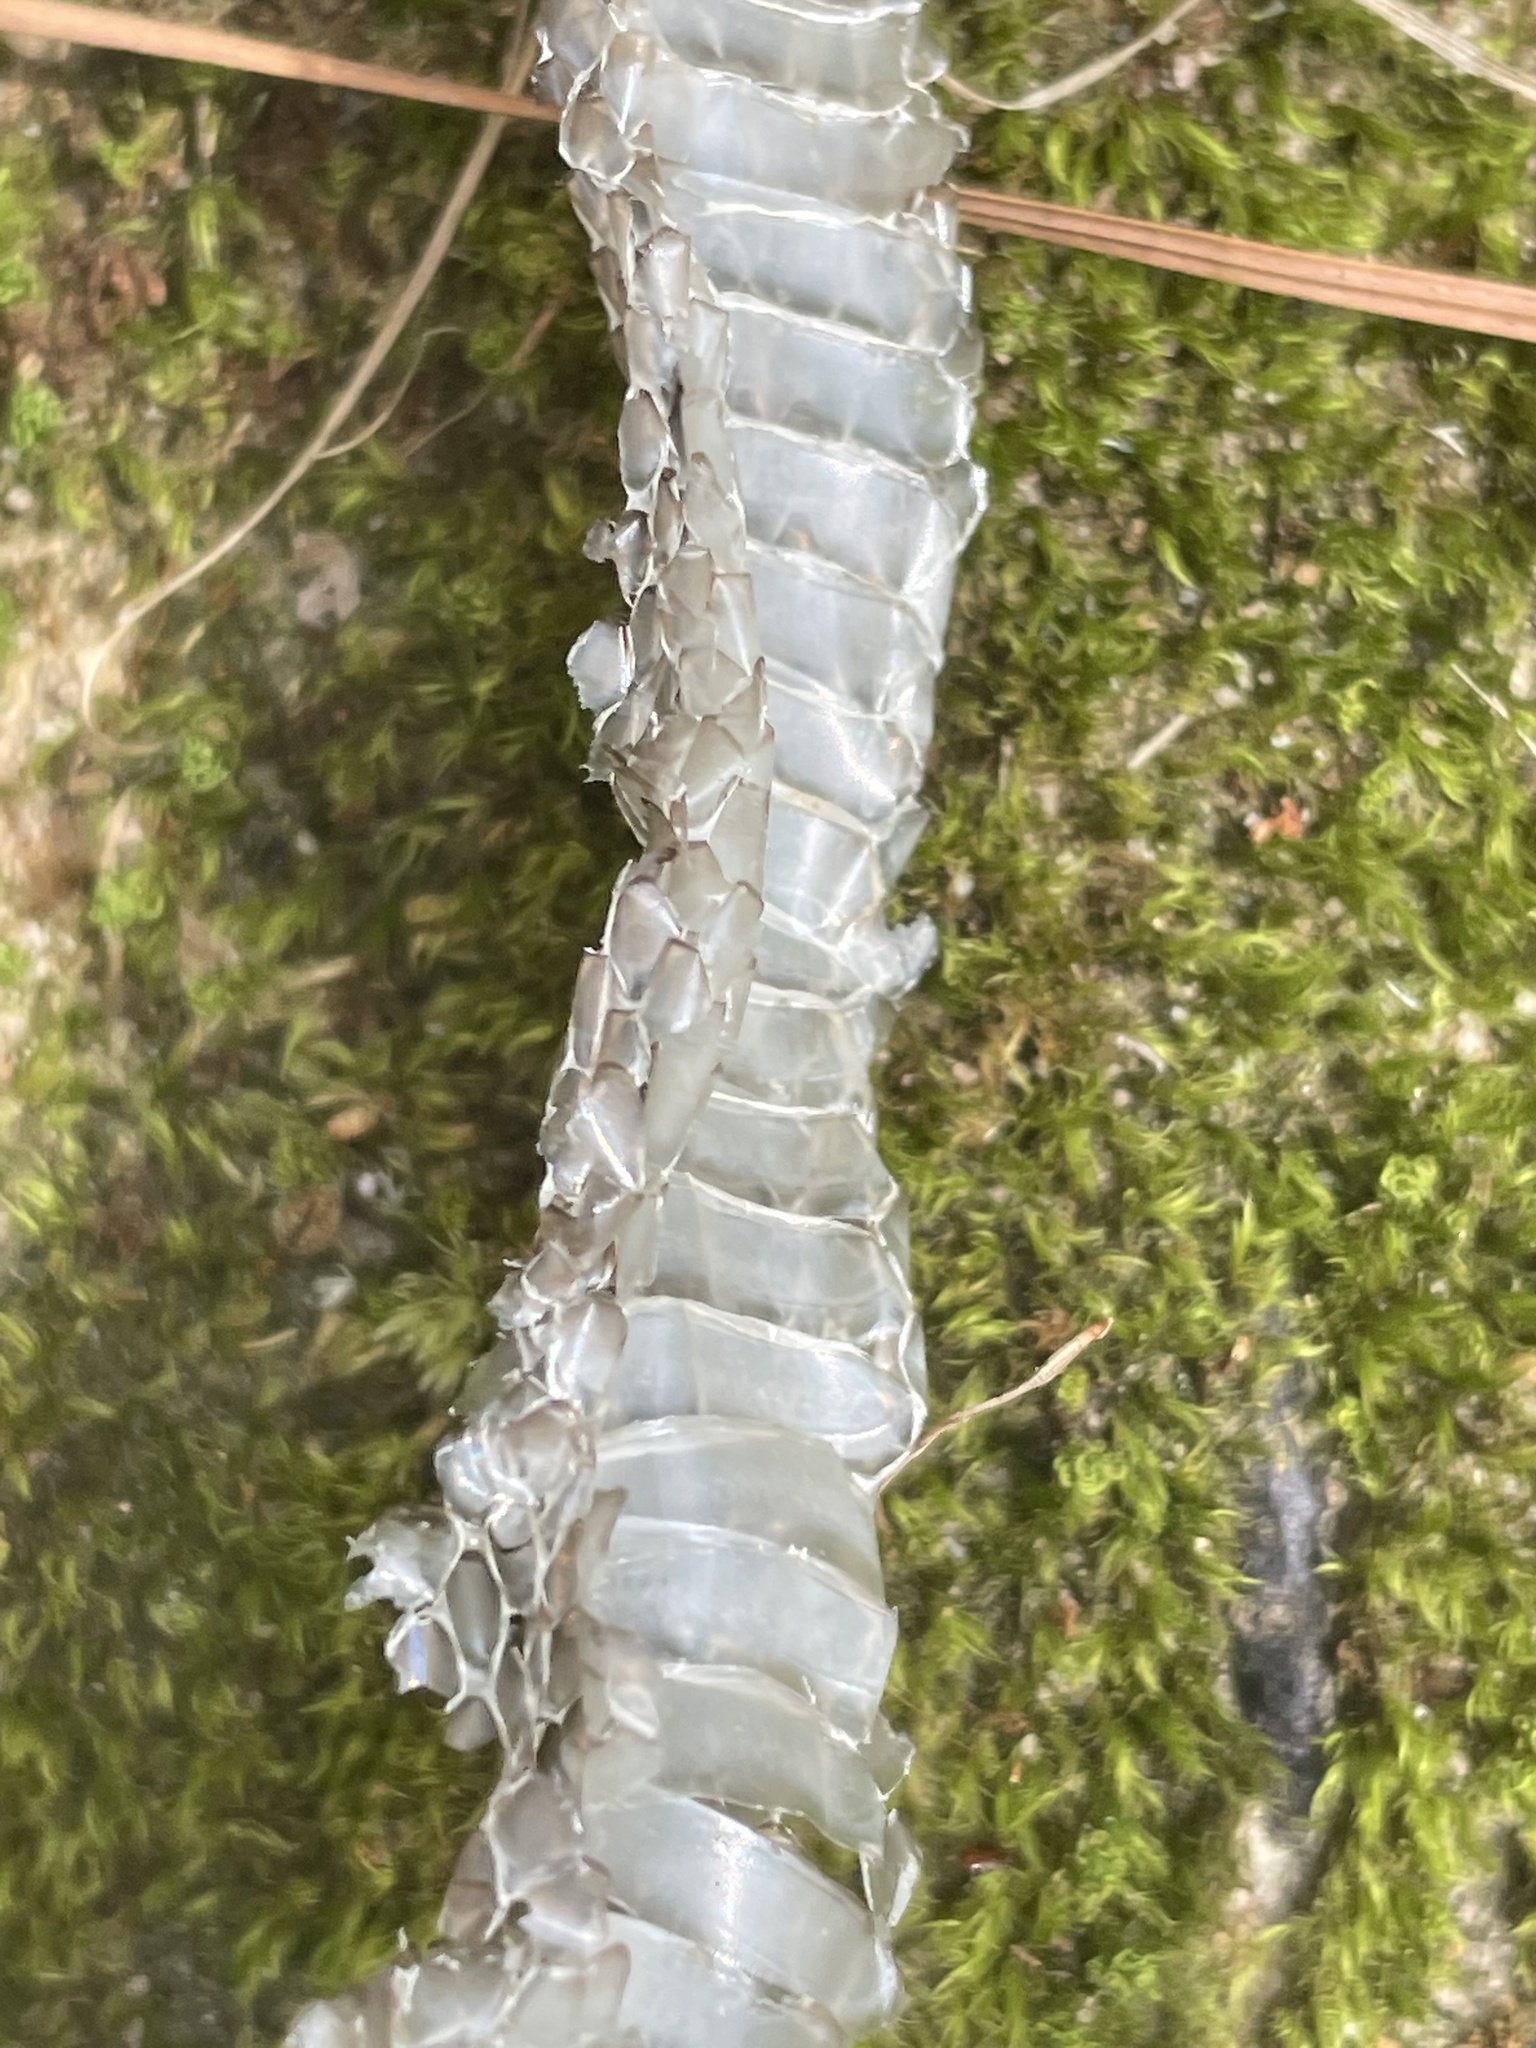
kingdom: Animalia
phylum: Chordata
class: Squamata
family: Colubridae
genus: Lampropeltis
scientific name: Lampropeltis getula
